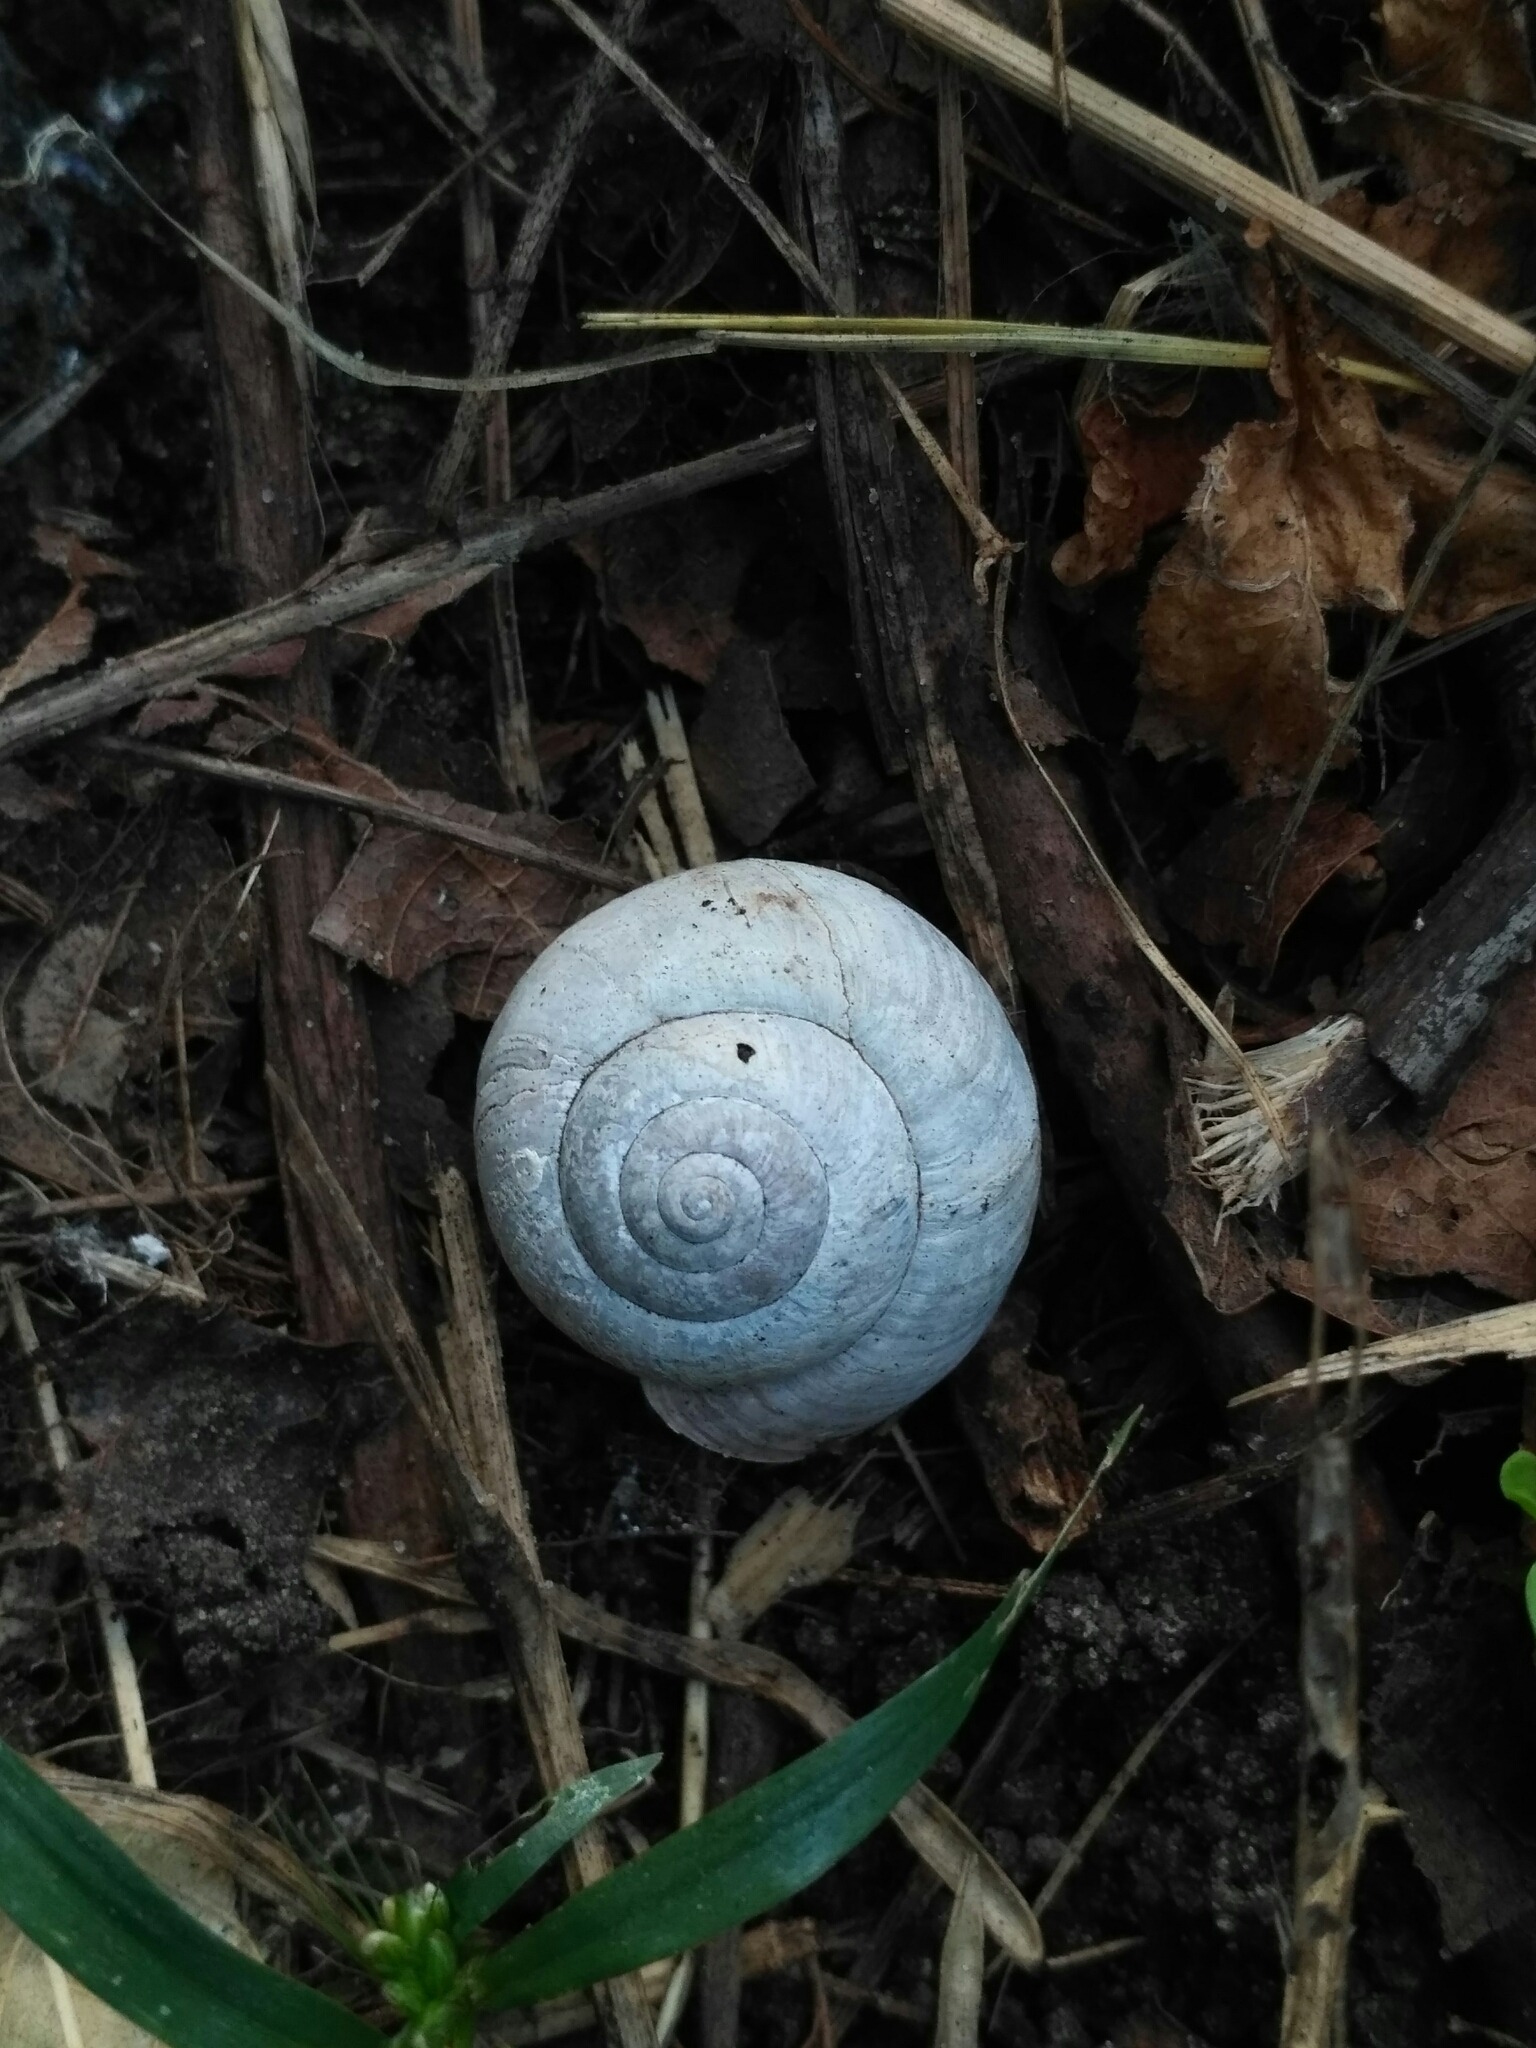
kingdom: Animalia
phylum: Mollusca
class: Gastropoda
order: Stylommatophora
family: Camaenidae
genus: Fruticicola
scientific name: Fruticicola fruticum
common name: Bush snail
